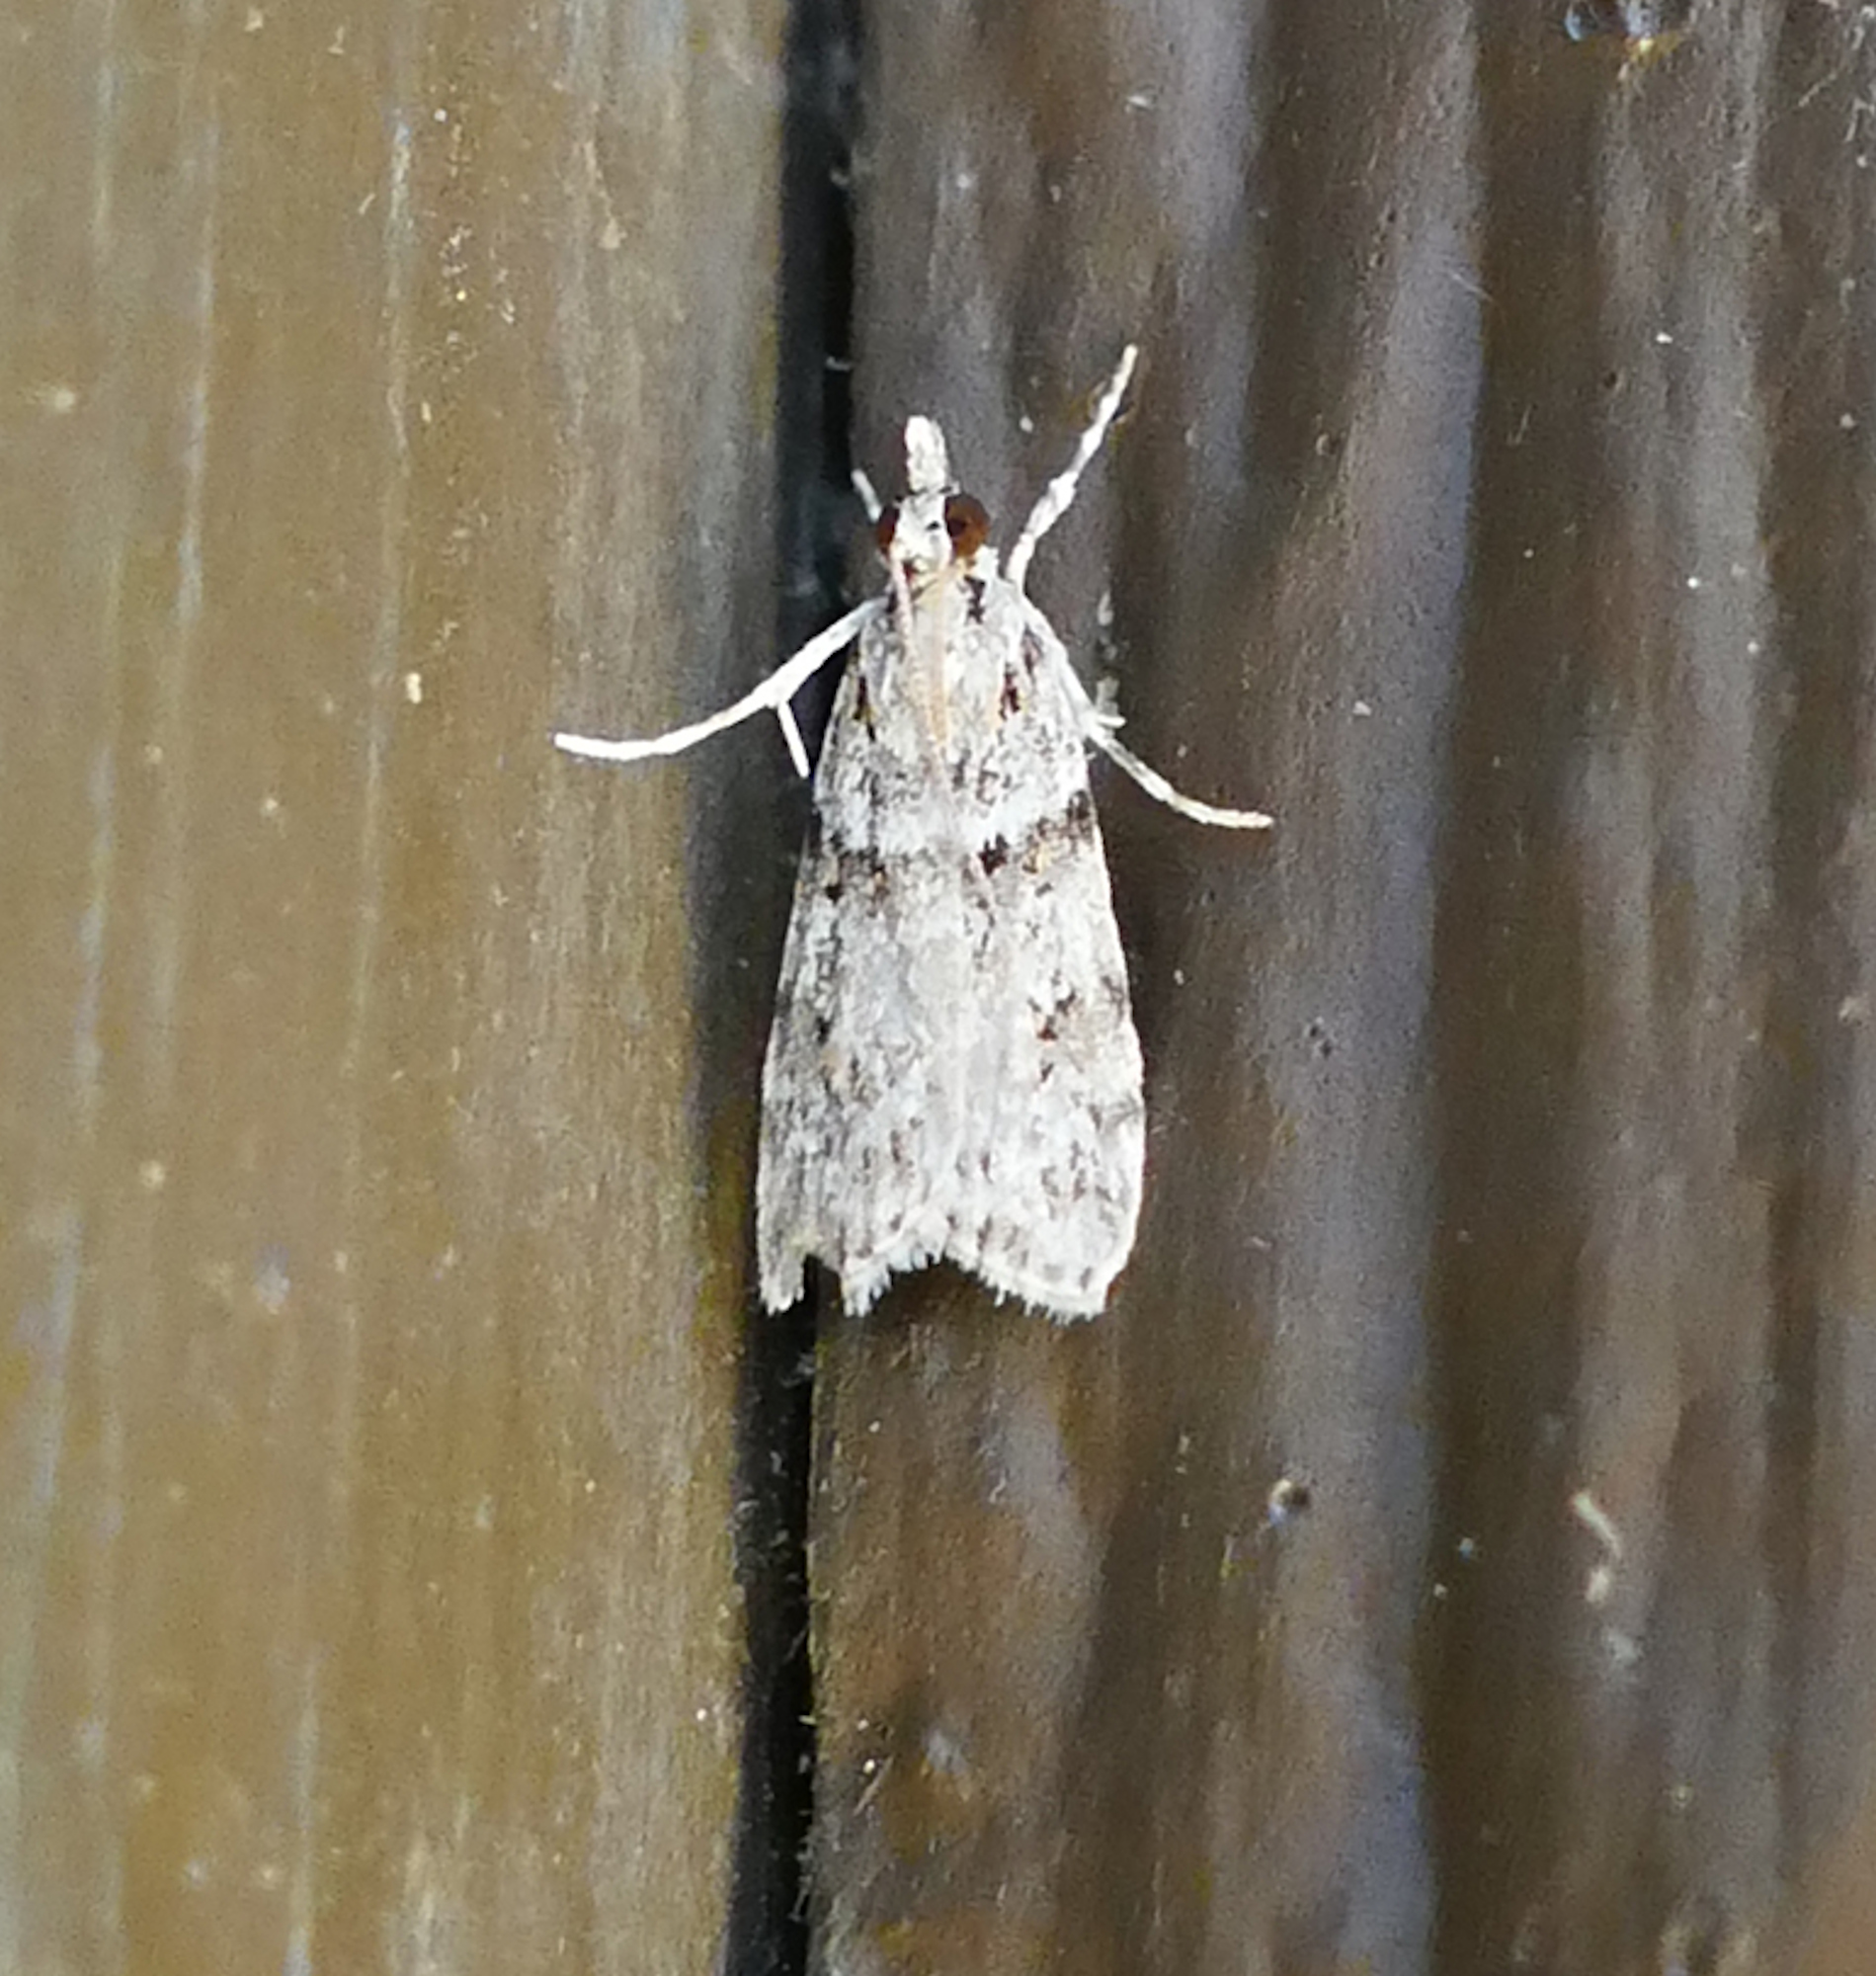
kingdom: Animalia
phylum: Arthropoda
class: Insecta
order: Lepidoptera
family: Crambidae
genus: Scoparia
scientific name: Scoparia biplagialis
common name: Double-striped scoparia moth
